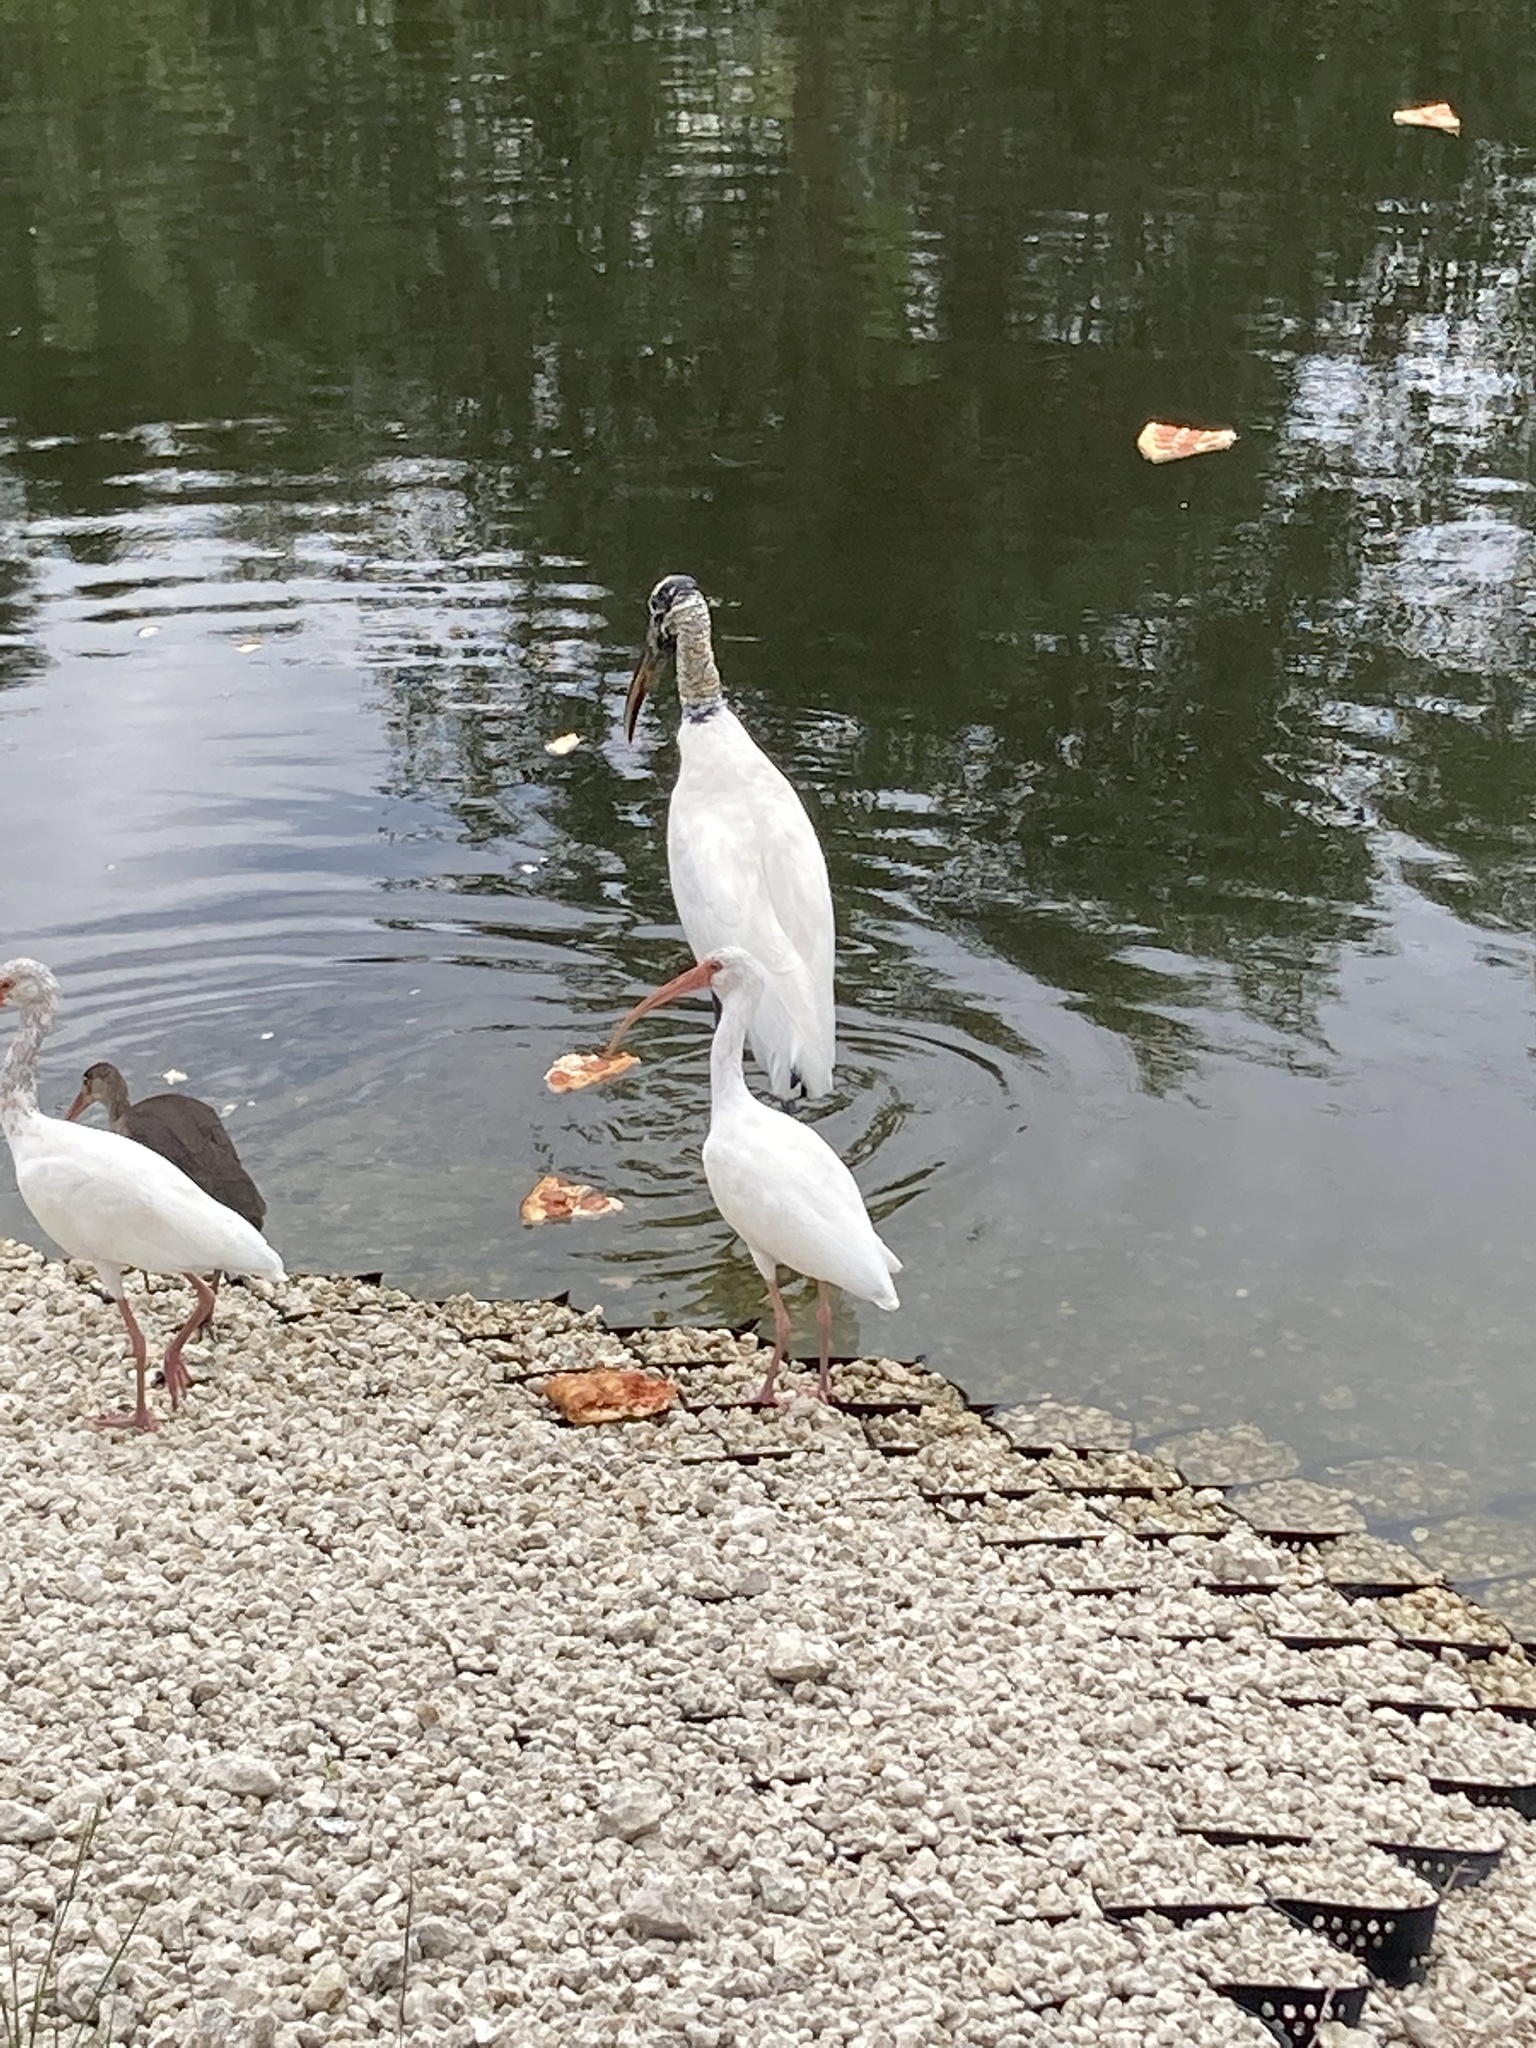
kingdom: Animalia
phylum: Chordata
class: Aves
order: Ciconiiformes
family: Ciconiidae
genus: Mycteria
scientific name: Mycteria americana
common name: Wood stork
